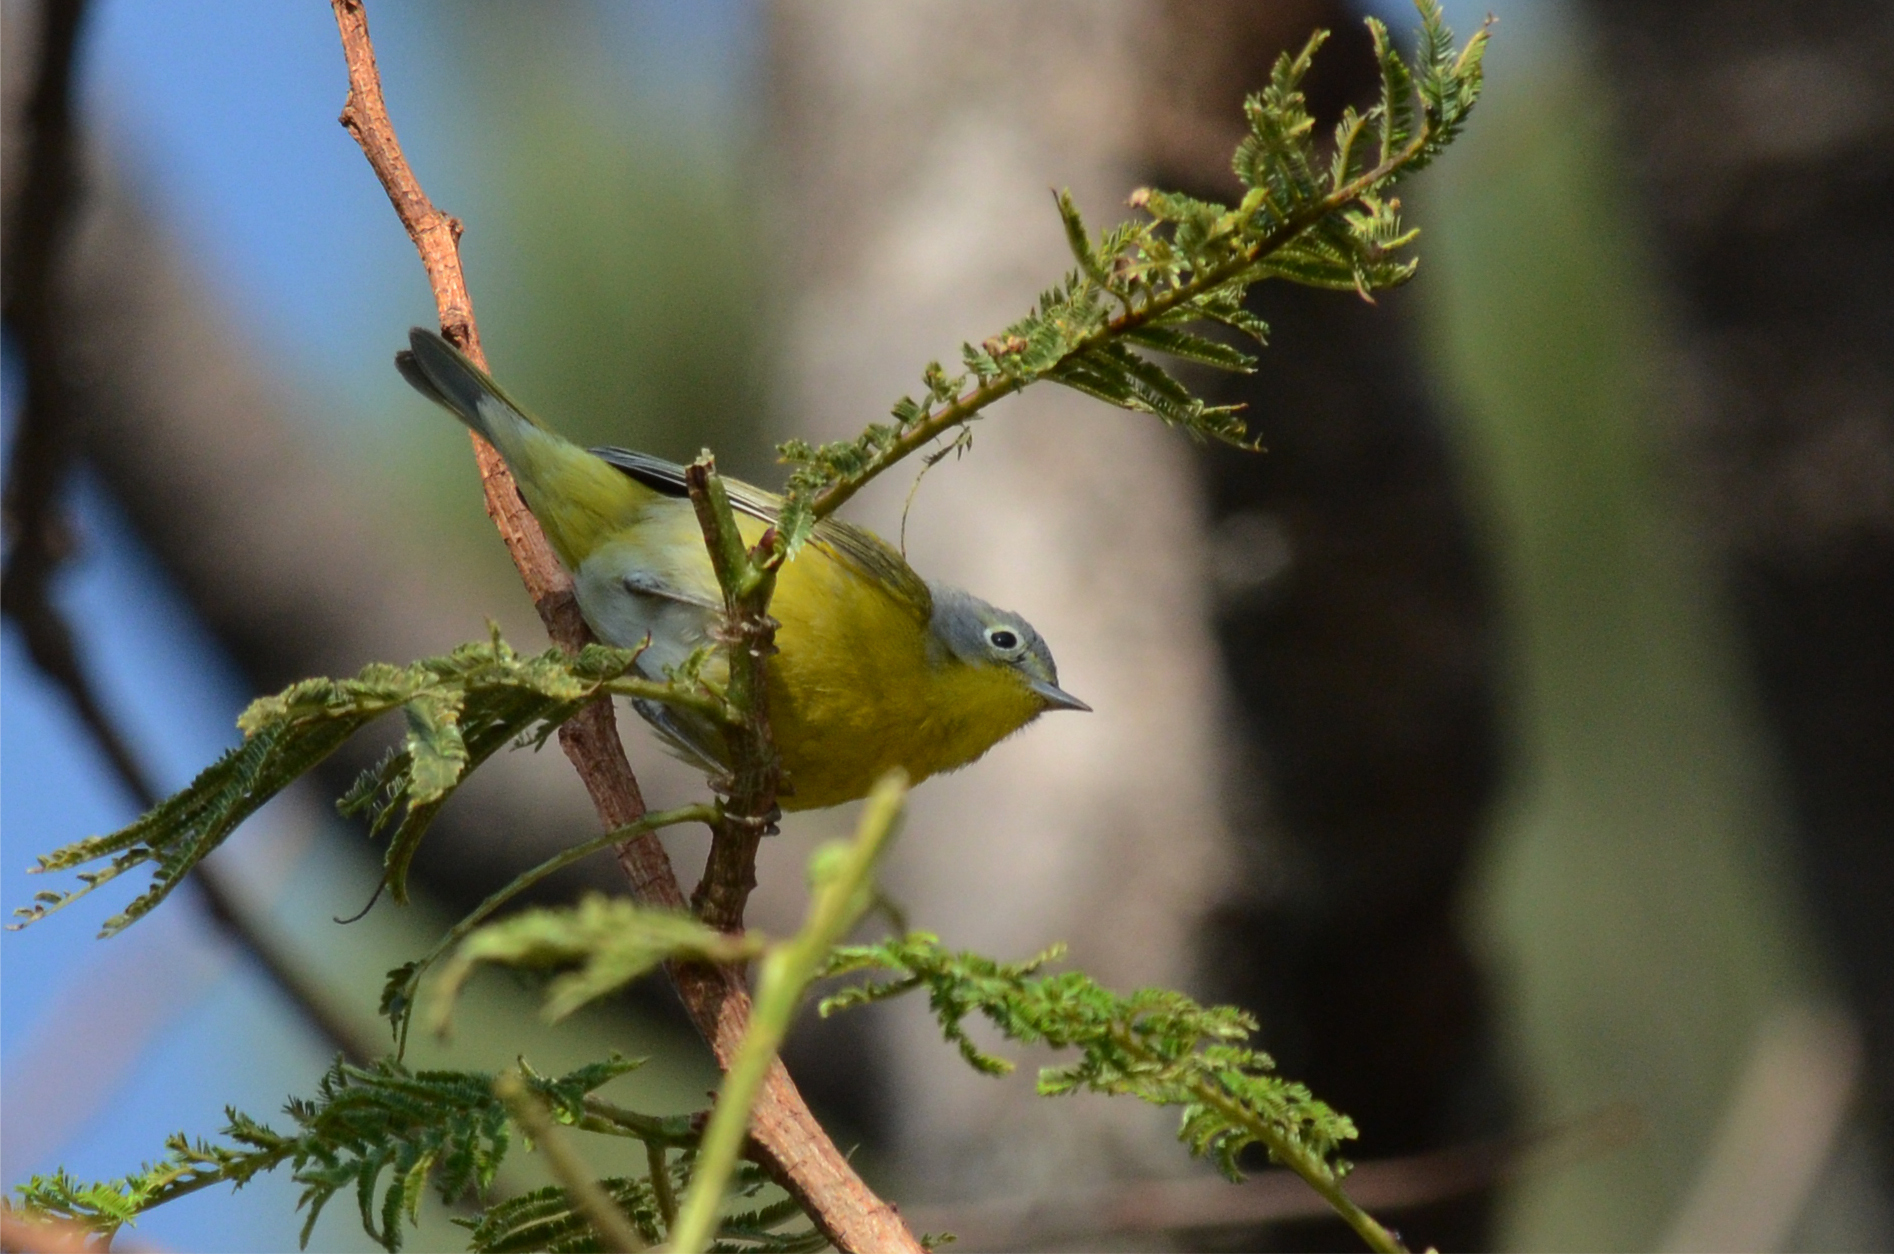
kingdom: Animalia
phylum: Chordata
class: Aves
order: Passeriformes
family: Parulidae
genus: Leiothlypis
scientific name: Leiothlypis ruficapilla
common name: Nashville warbler
